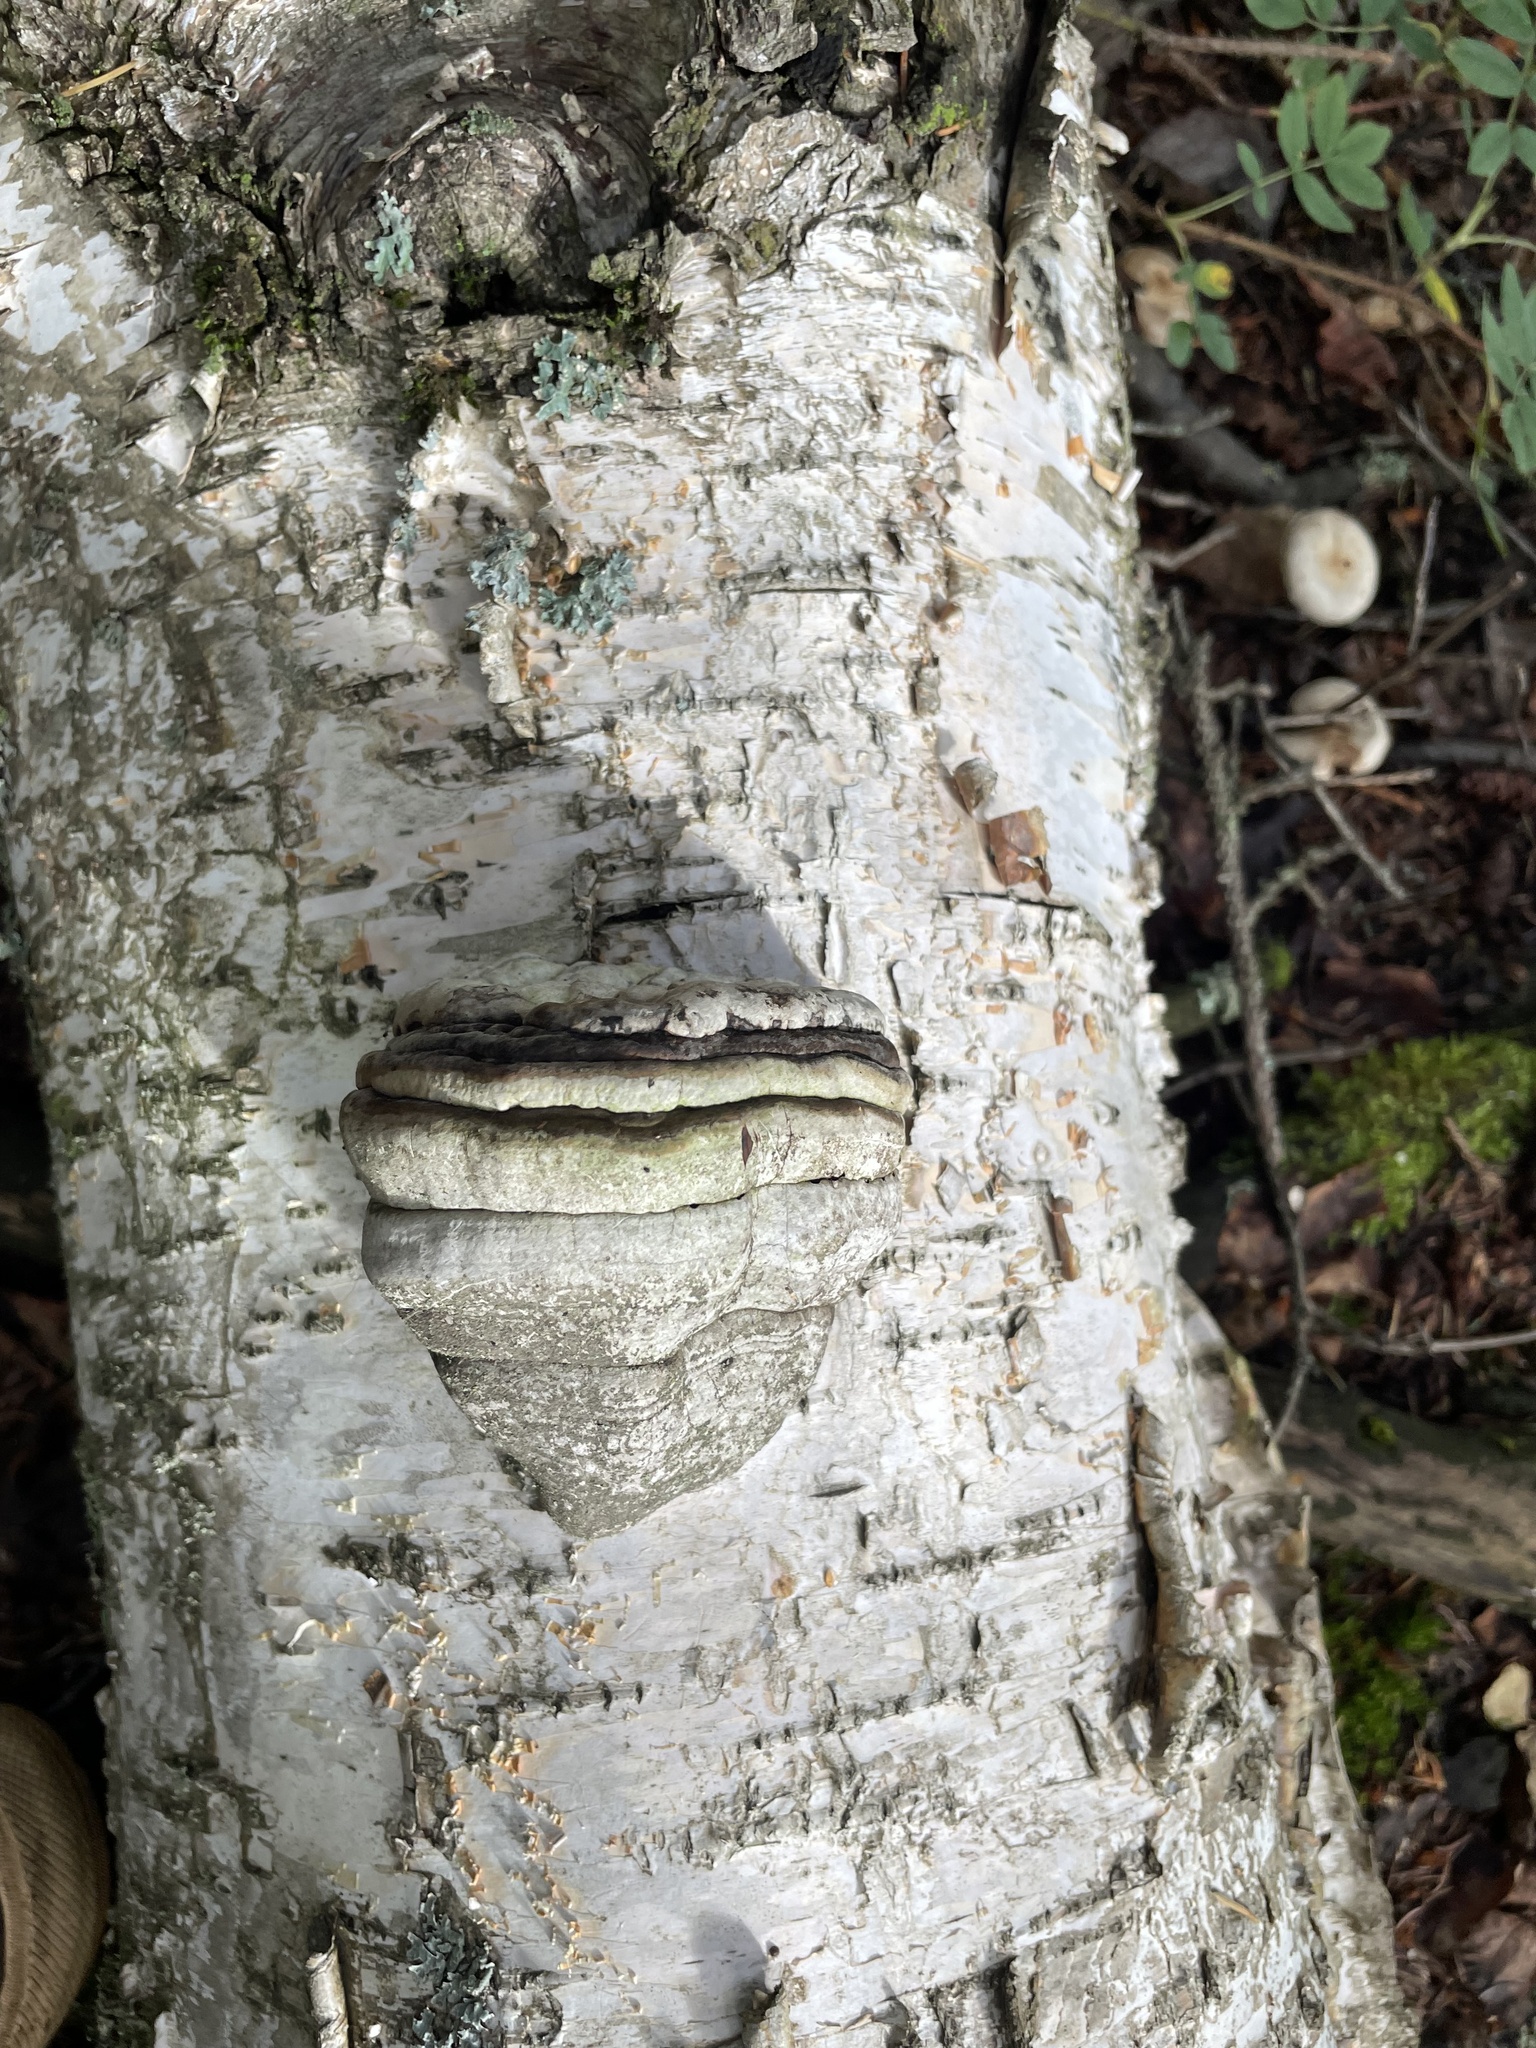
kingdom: Fungi
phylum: Basidiomycota
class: Agaricomycetes
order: Polyporales
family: Polyporaceae
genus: Fomes
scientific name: Fomes fomentarius
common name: Hoof fungus
